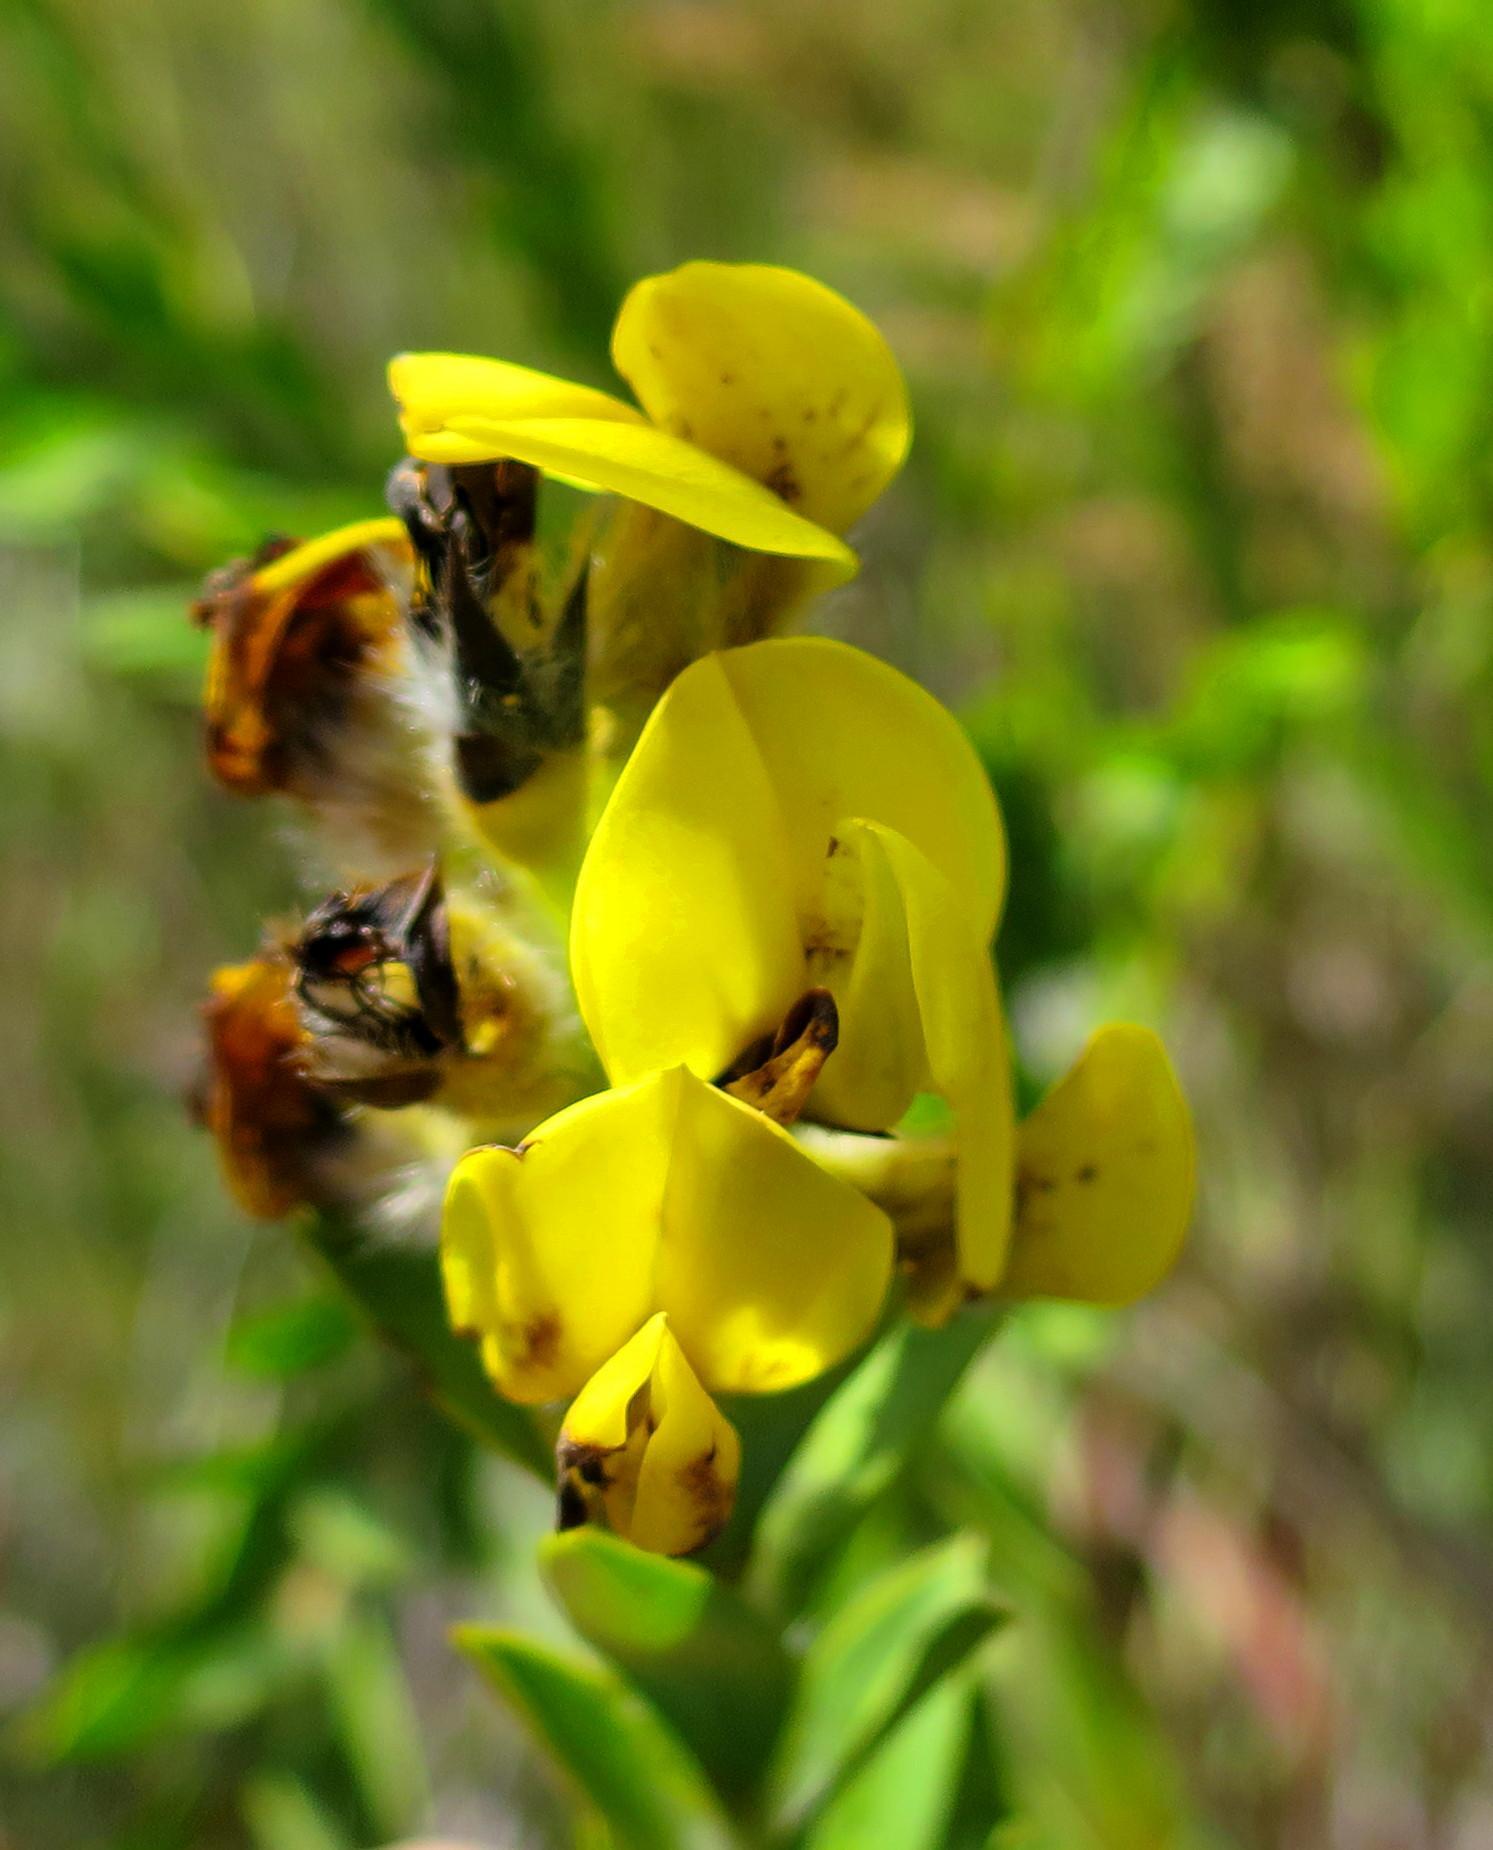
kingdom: Plantae
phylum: Tracheophyta
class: Magnoliopsida
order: Fabales
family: Fabaceae
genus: Liparia
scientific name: Liparia hirsuta
